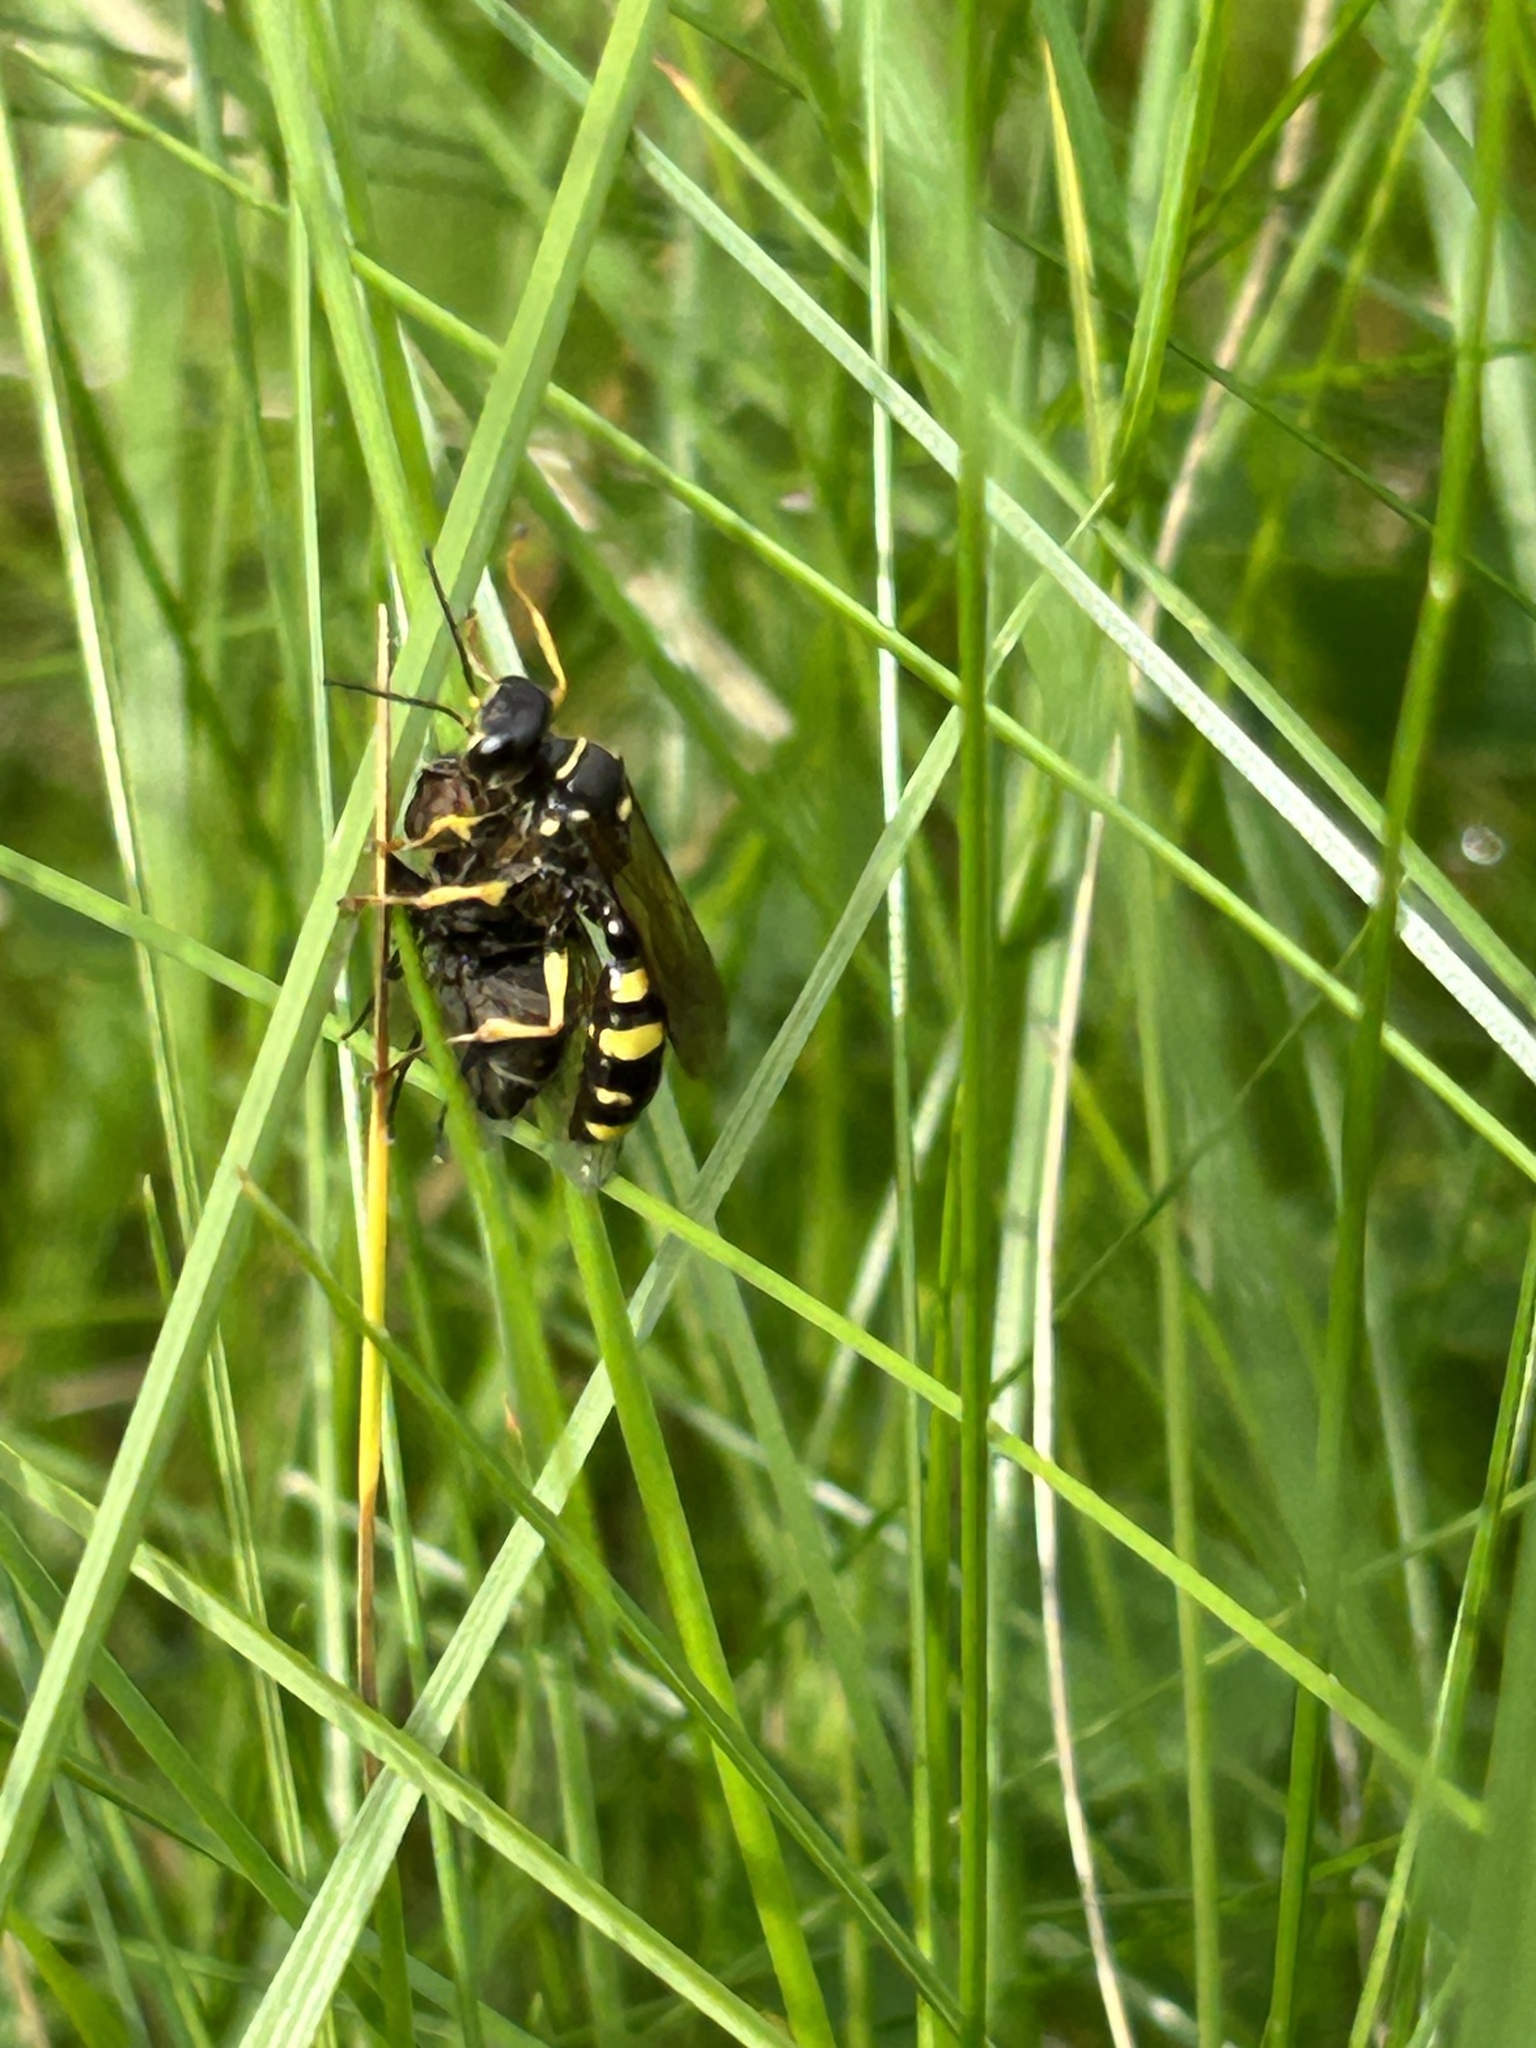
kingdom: Animalia
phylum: Arthropoda
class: Insecta
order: Hymenoptera
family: Crabronidae
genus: Mellinus
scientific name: Mellinus arvensis
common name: Field digger wasp
